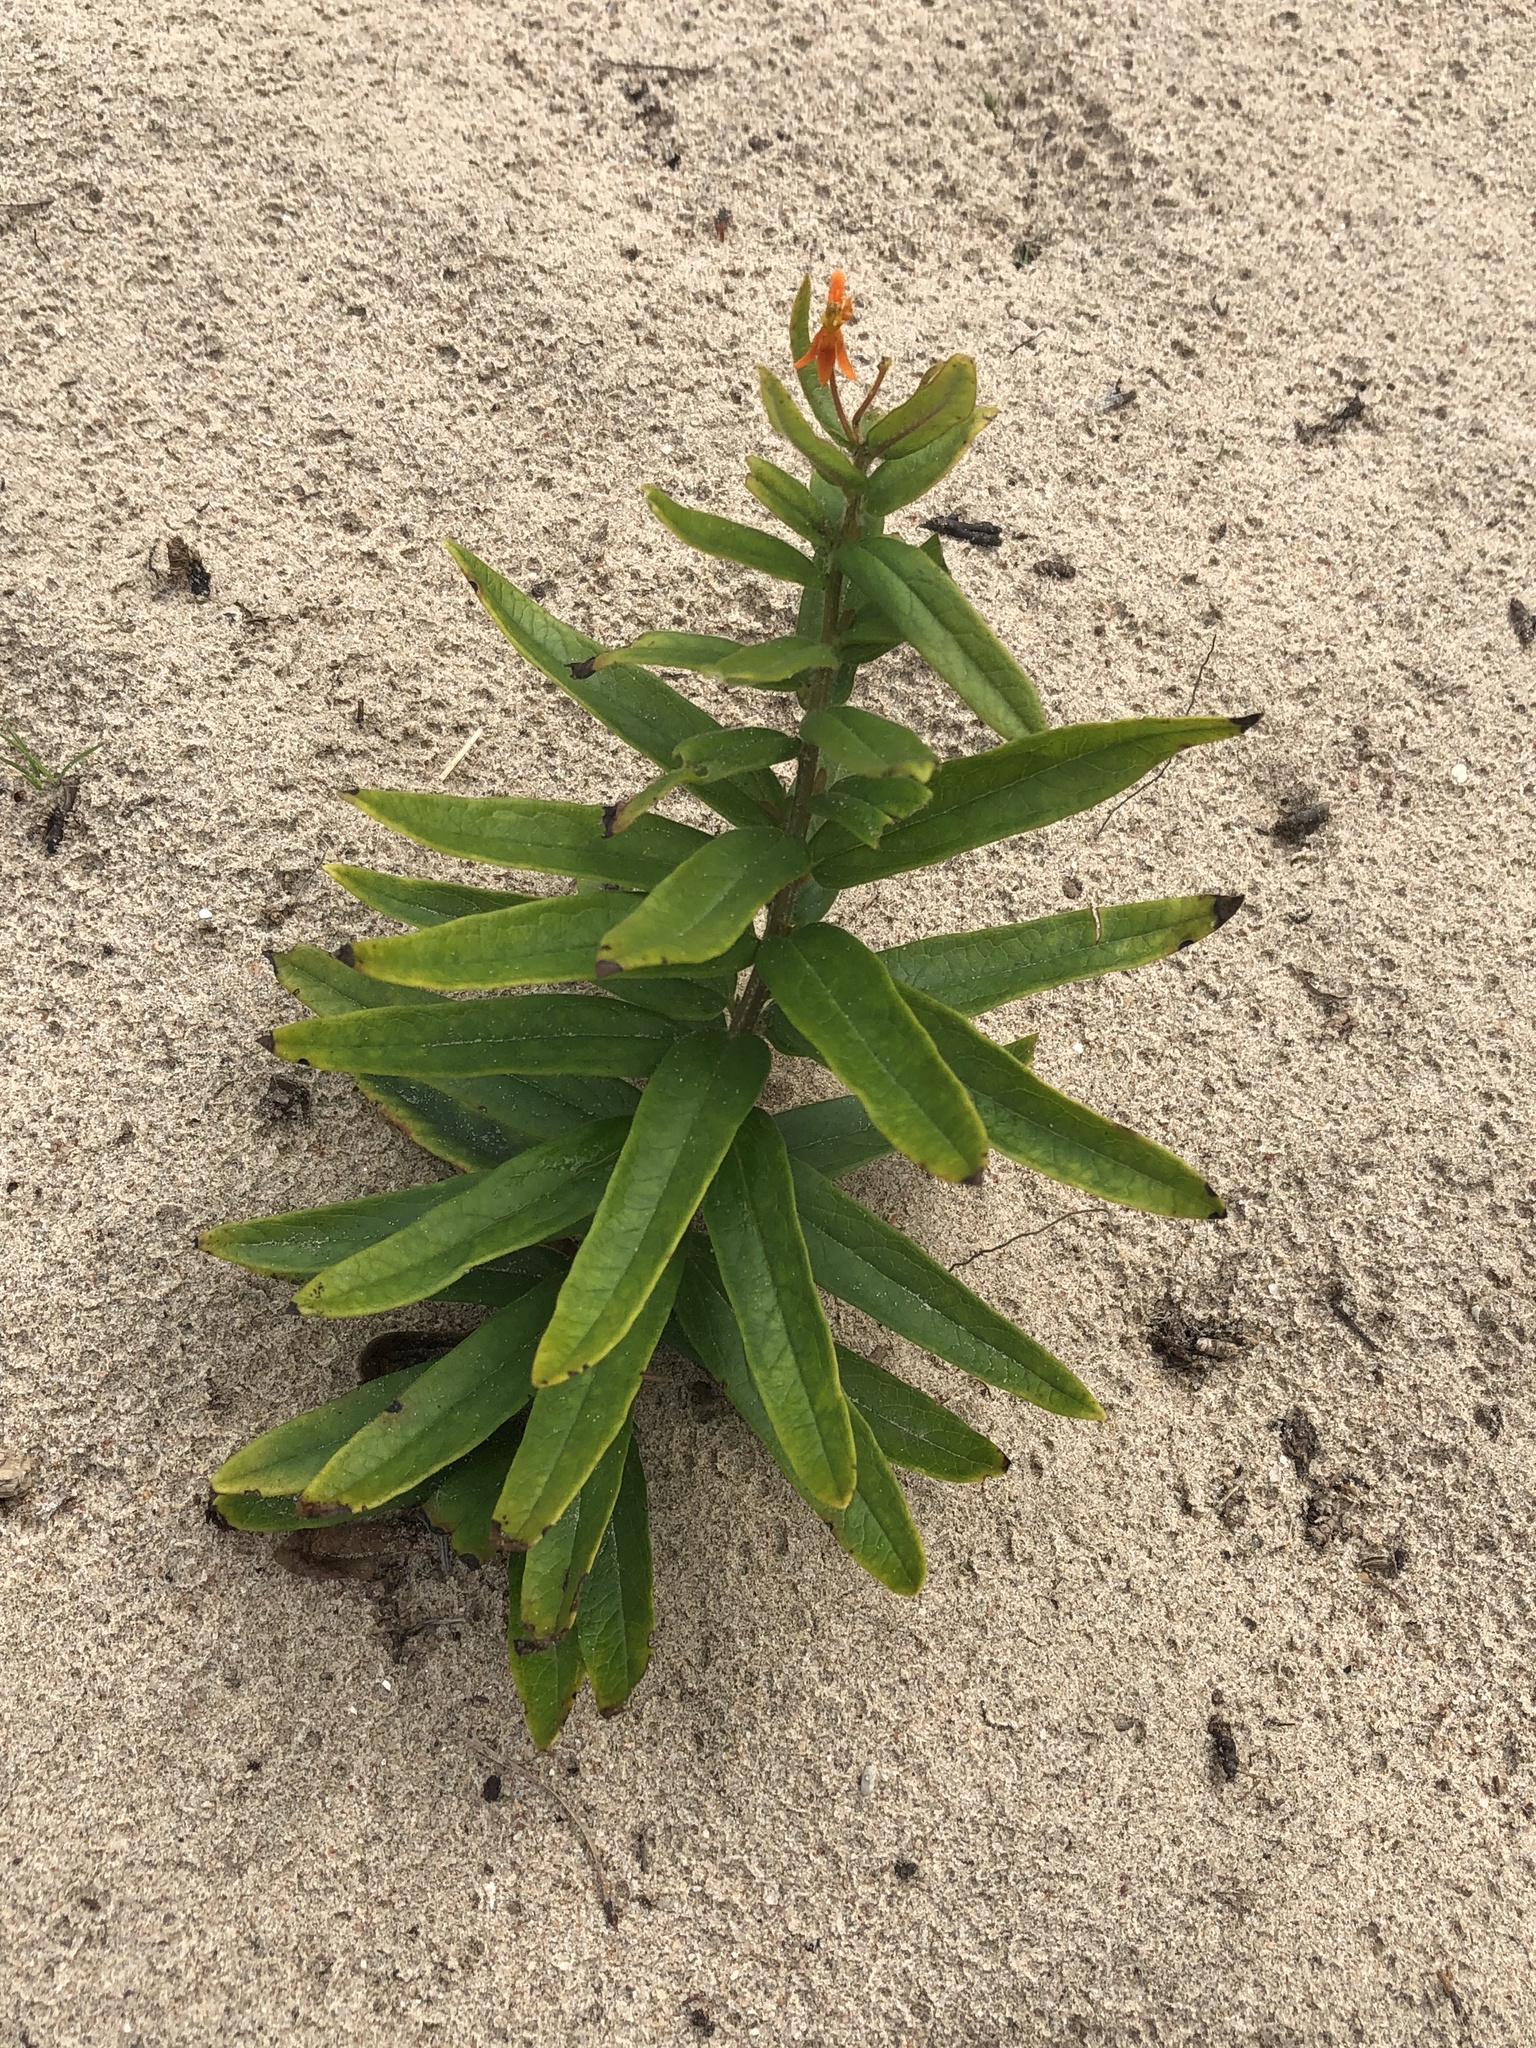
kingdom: Plantae
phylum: Tracheophyta
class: Magnoliopsida
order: Gentianales
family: Apocynaceae
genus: Asclepias
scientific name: Asclepias tuberosa
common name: Butterfly milkweed
